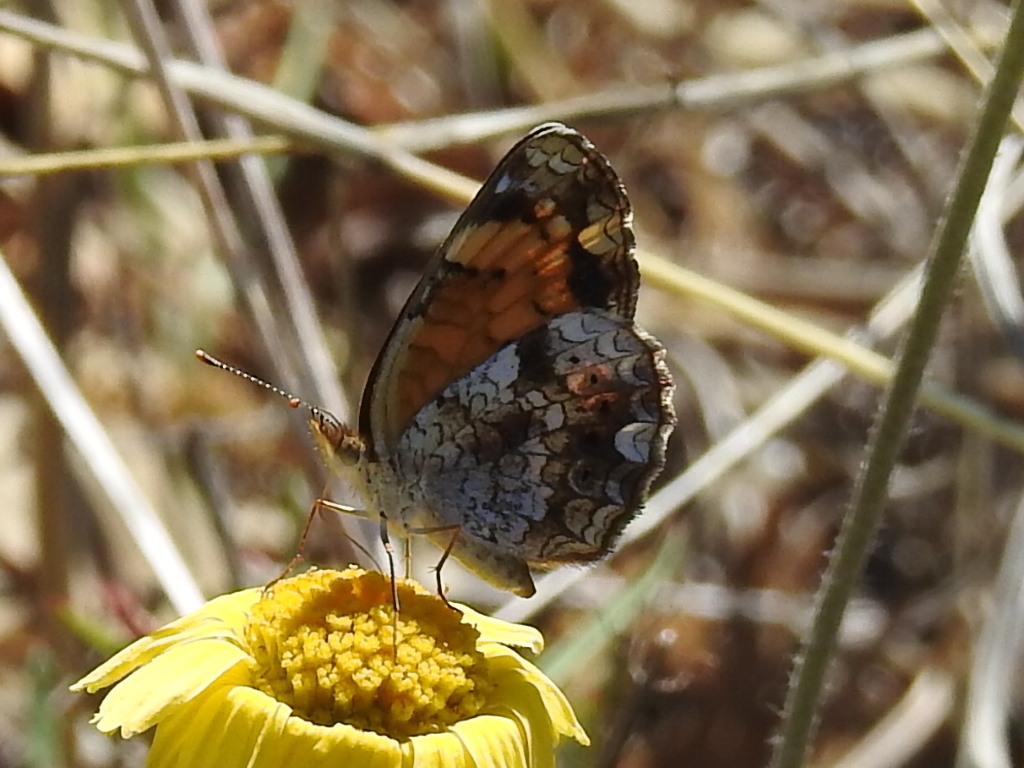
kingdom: Animalia
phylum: Arthropoda
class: Insecta
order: Lepidoptera
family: Nymphalidae
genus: Phyciodes
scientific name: Phyciodes tharos
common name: Pearl crescent
